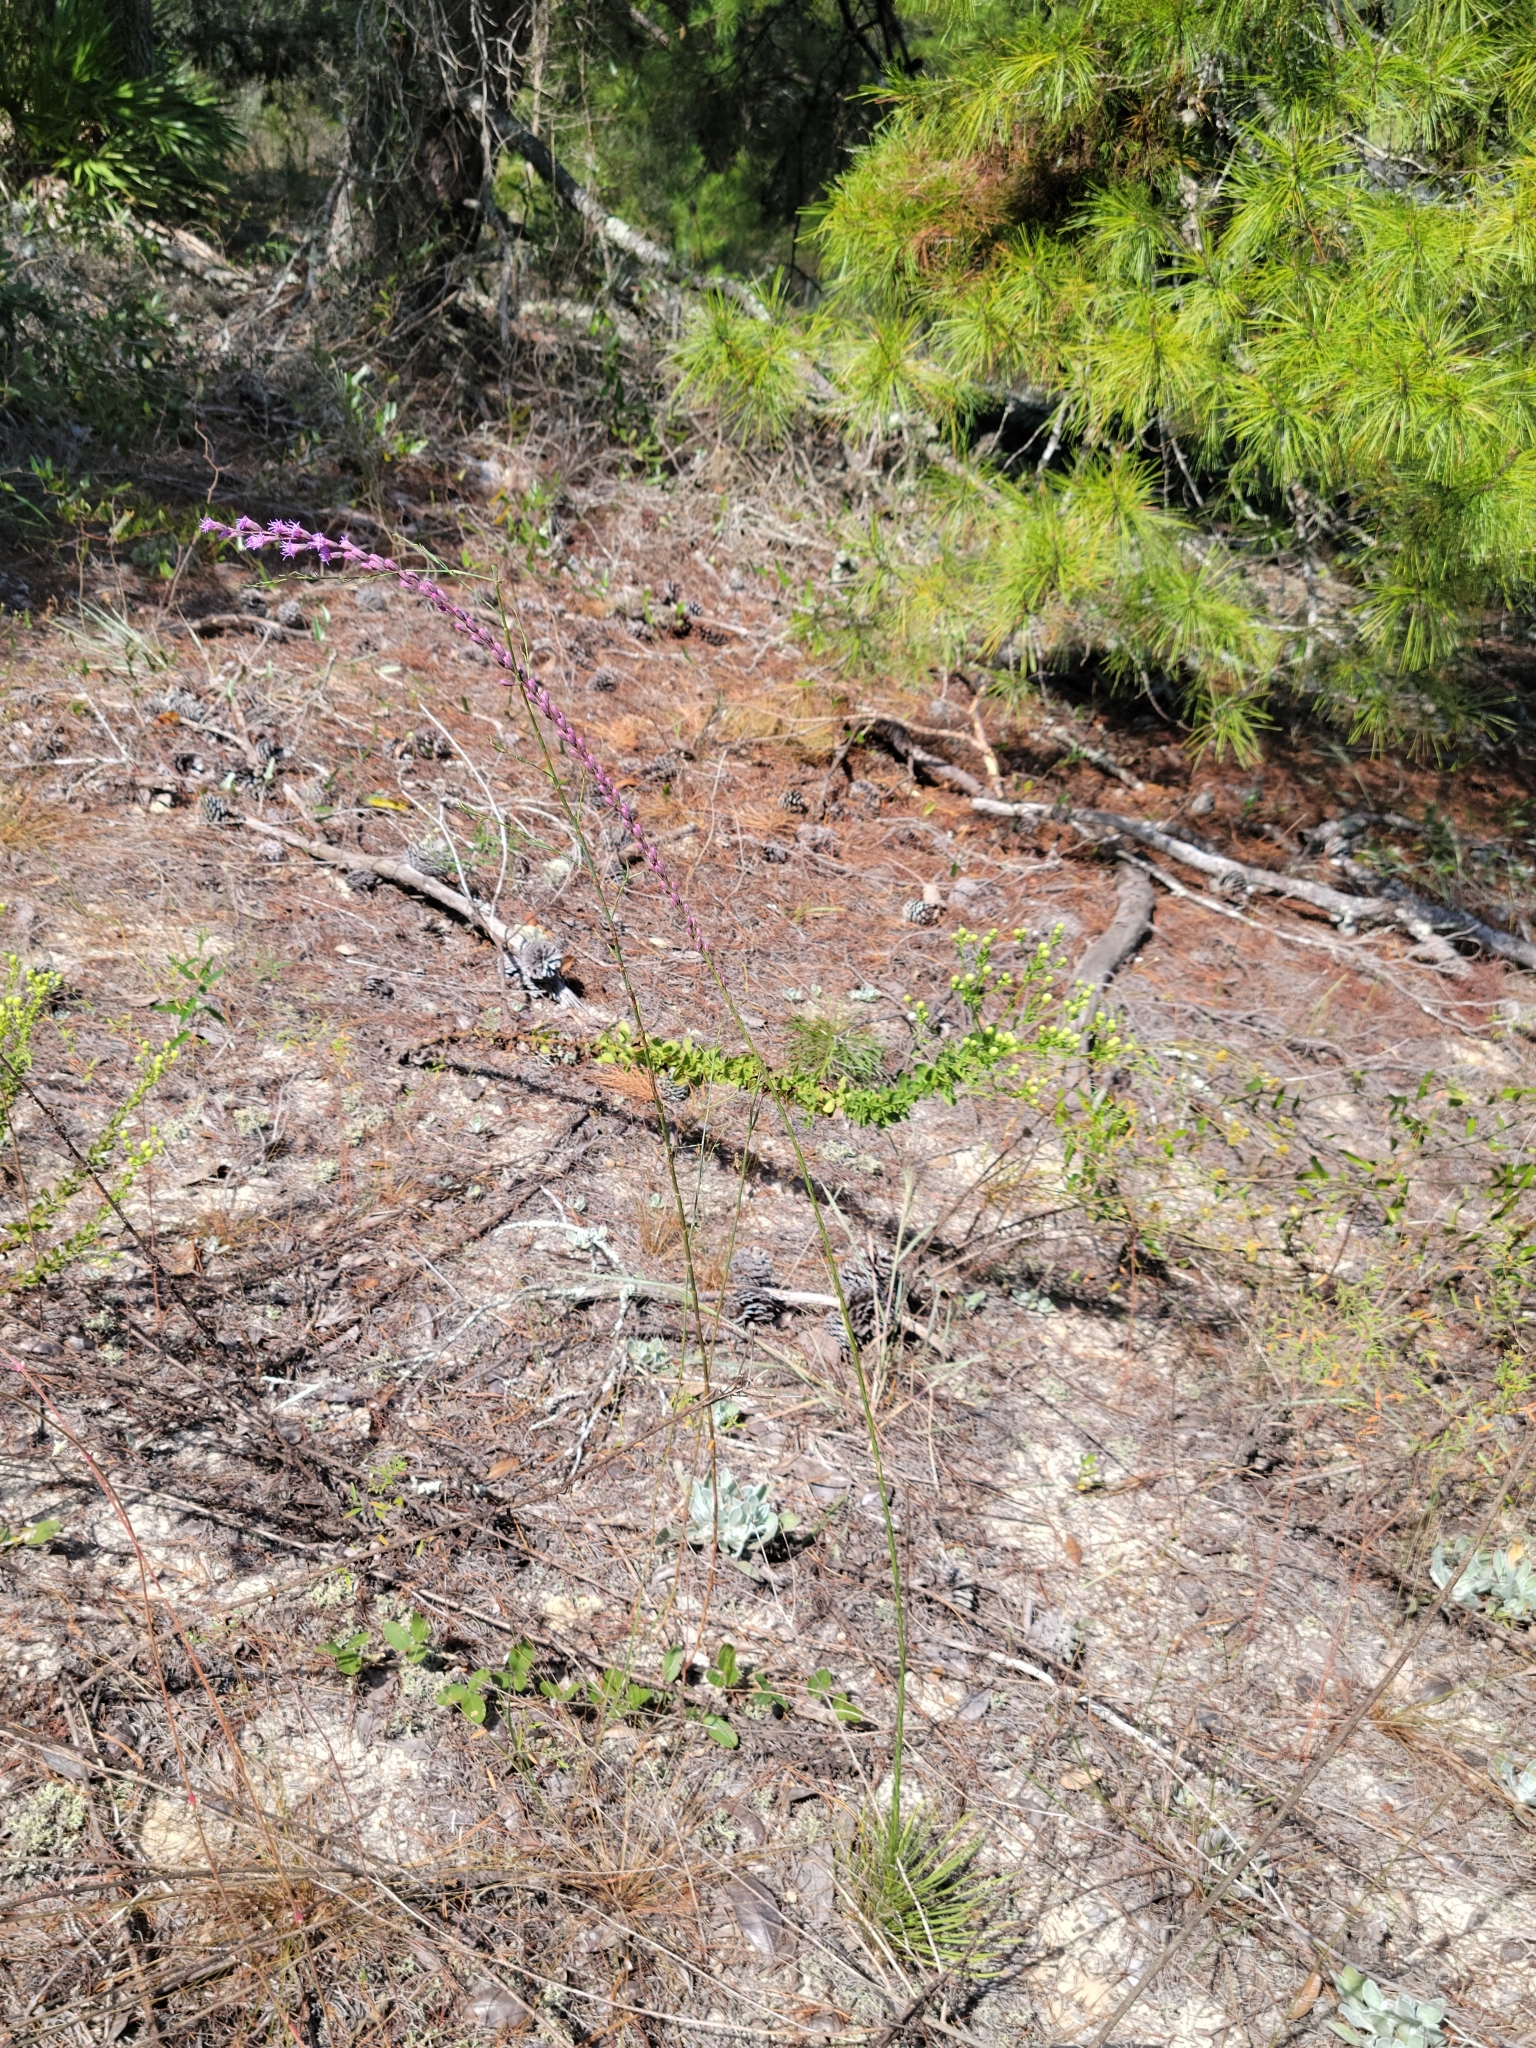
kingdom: Plantae
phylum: Tracheophyta
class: Magnoliopsida
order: Asterales
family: Asteraceae
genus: Liatris
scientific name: Liatris tenuifolia
